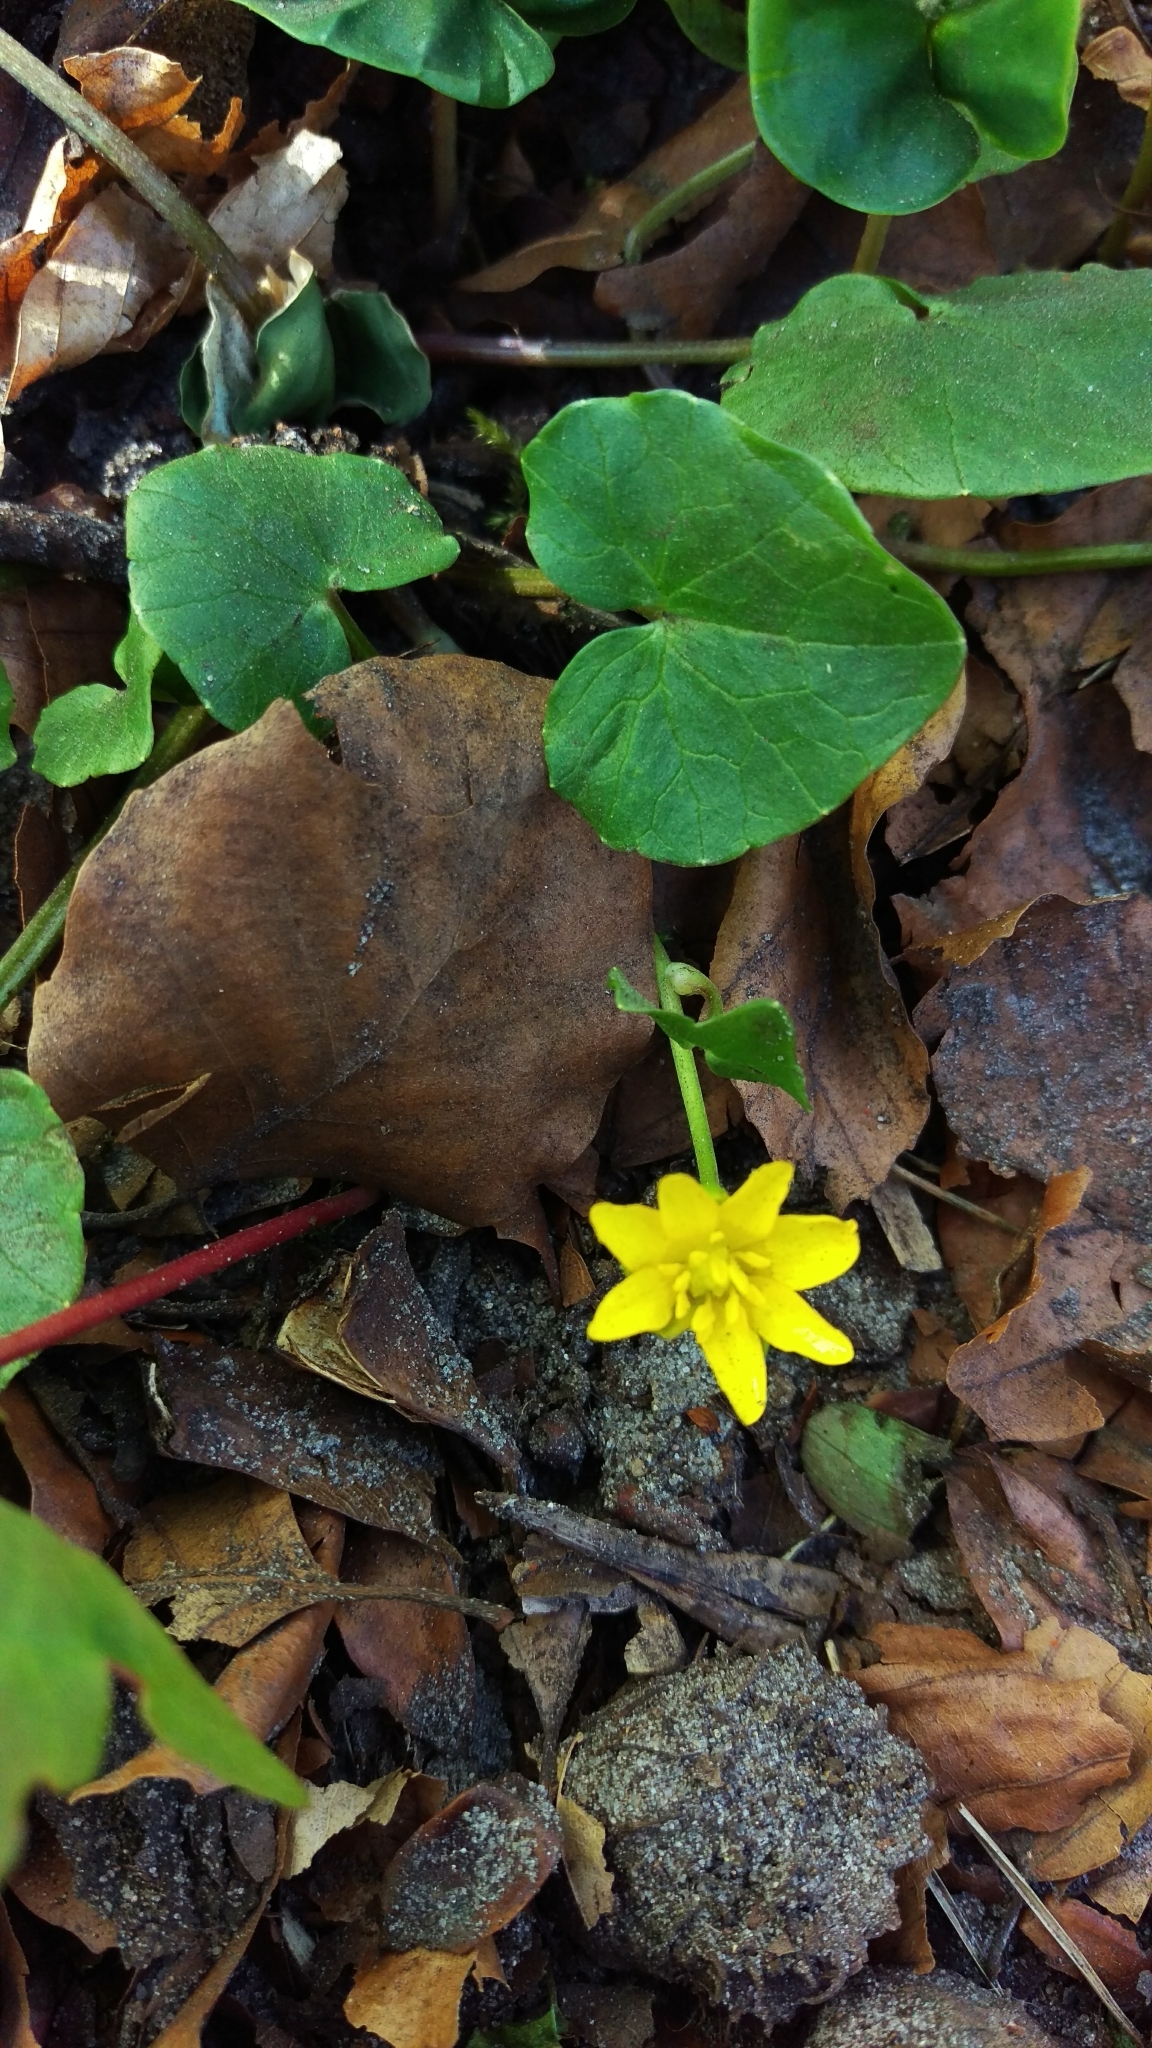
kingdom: Plantae
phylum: Tracheophyta
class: Magnoliopsida
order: Ranunculales
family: Ranunculaceae
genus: Ficaria
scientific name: Ficaria verna
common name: Lesser celandine
